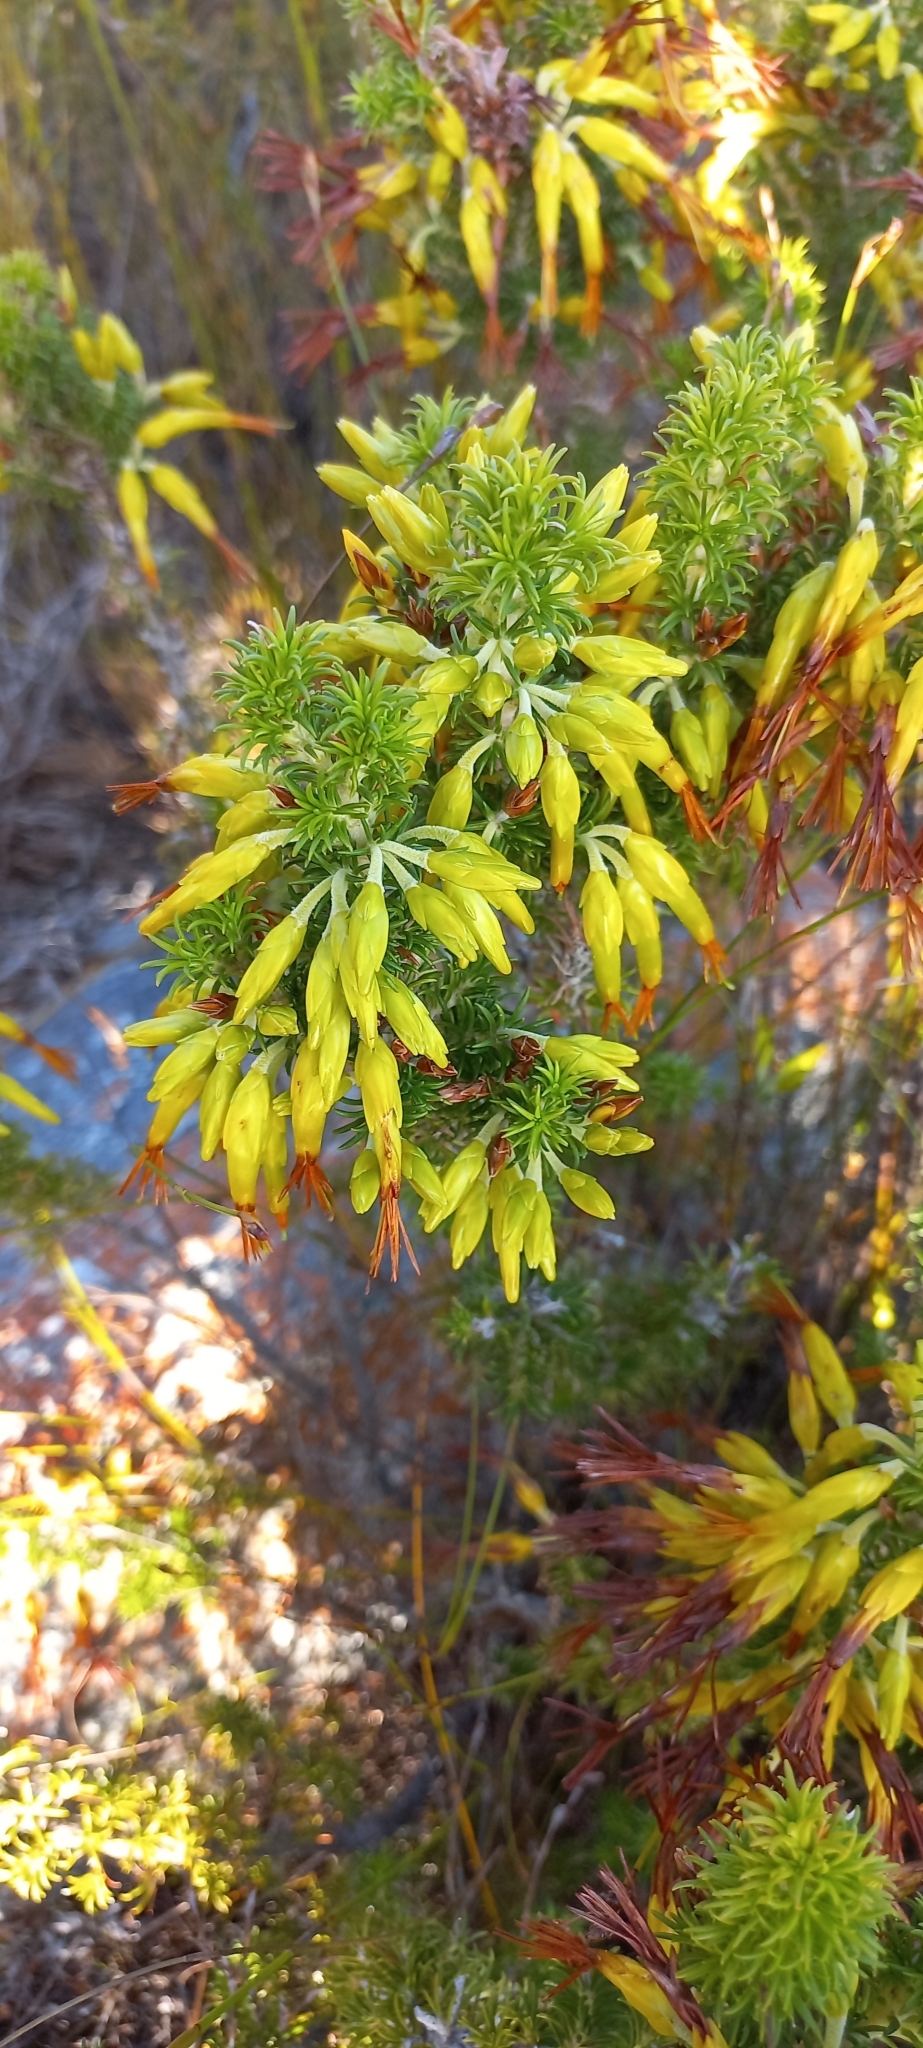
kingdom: Plantae
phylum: Tracheophyta
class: Magnoliopsida
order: Ericales
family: Ericaceae
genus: Erica
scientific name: Erica coccinea
